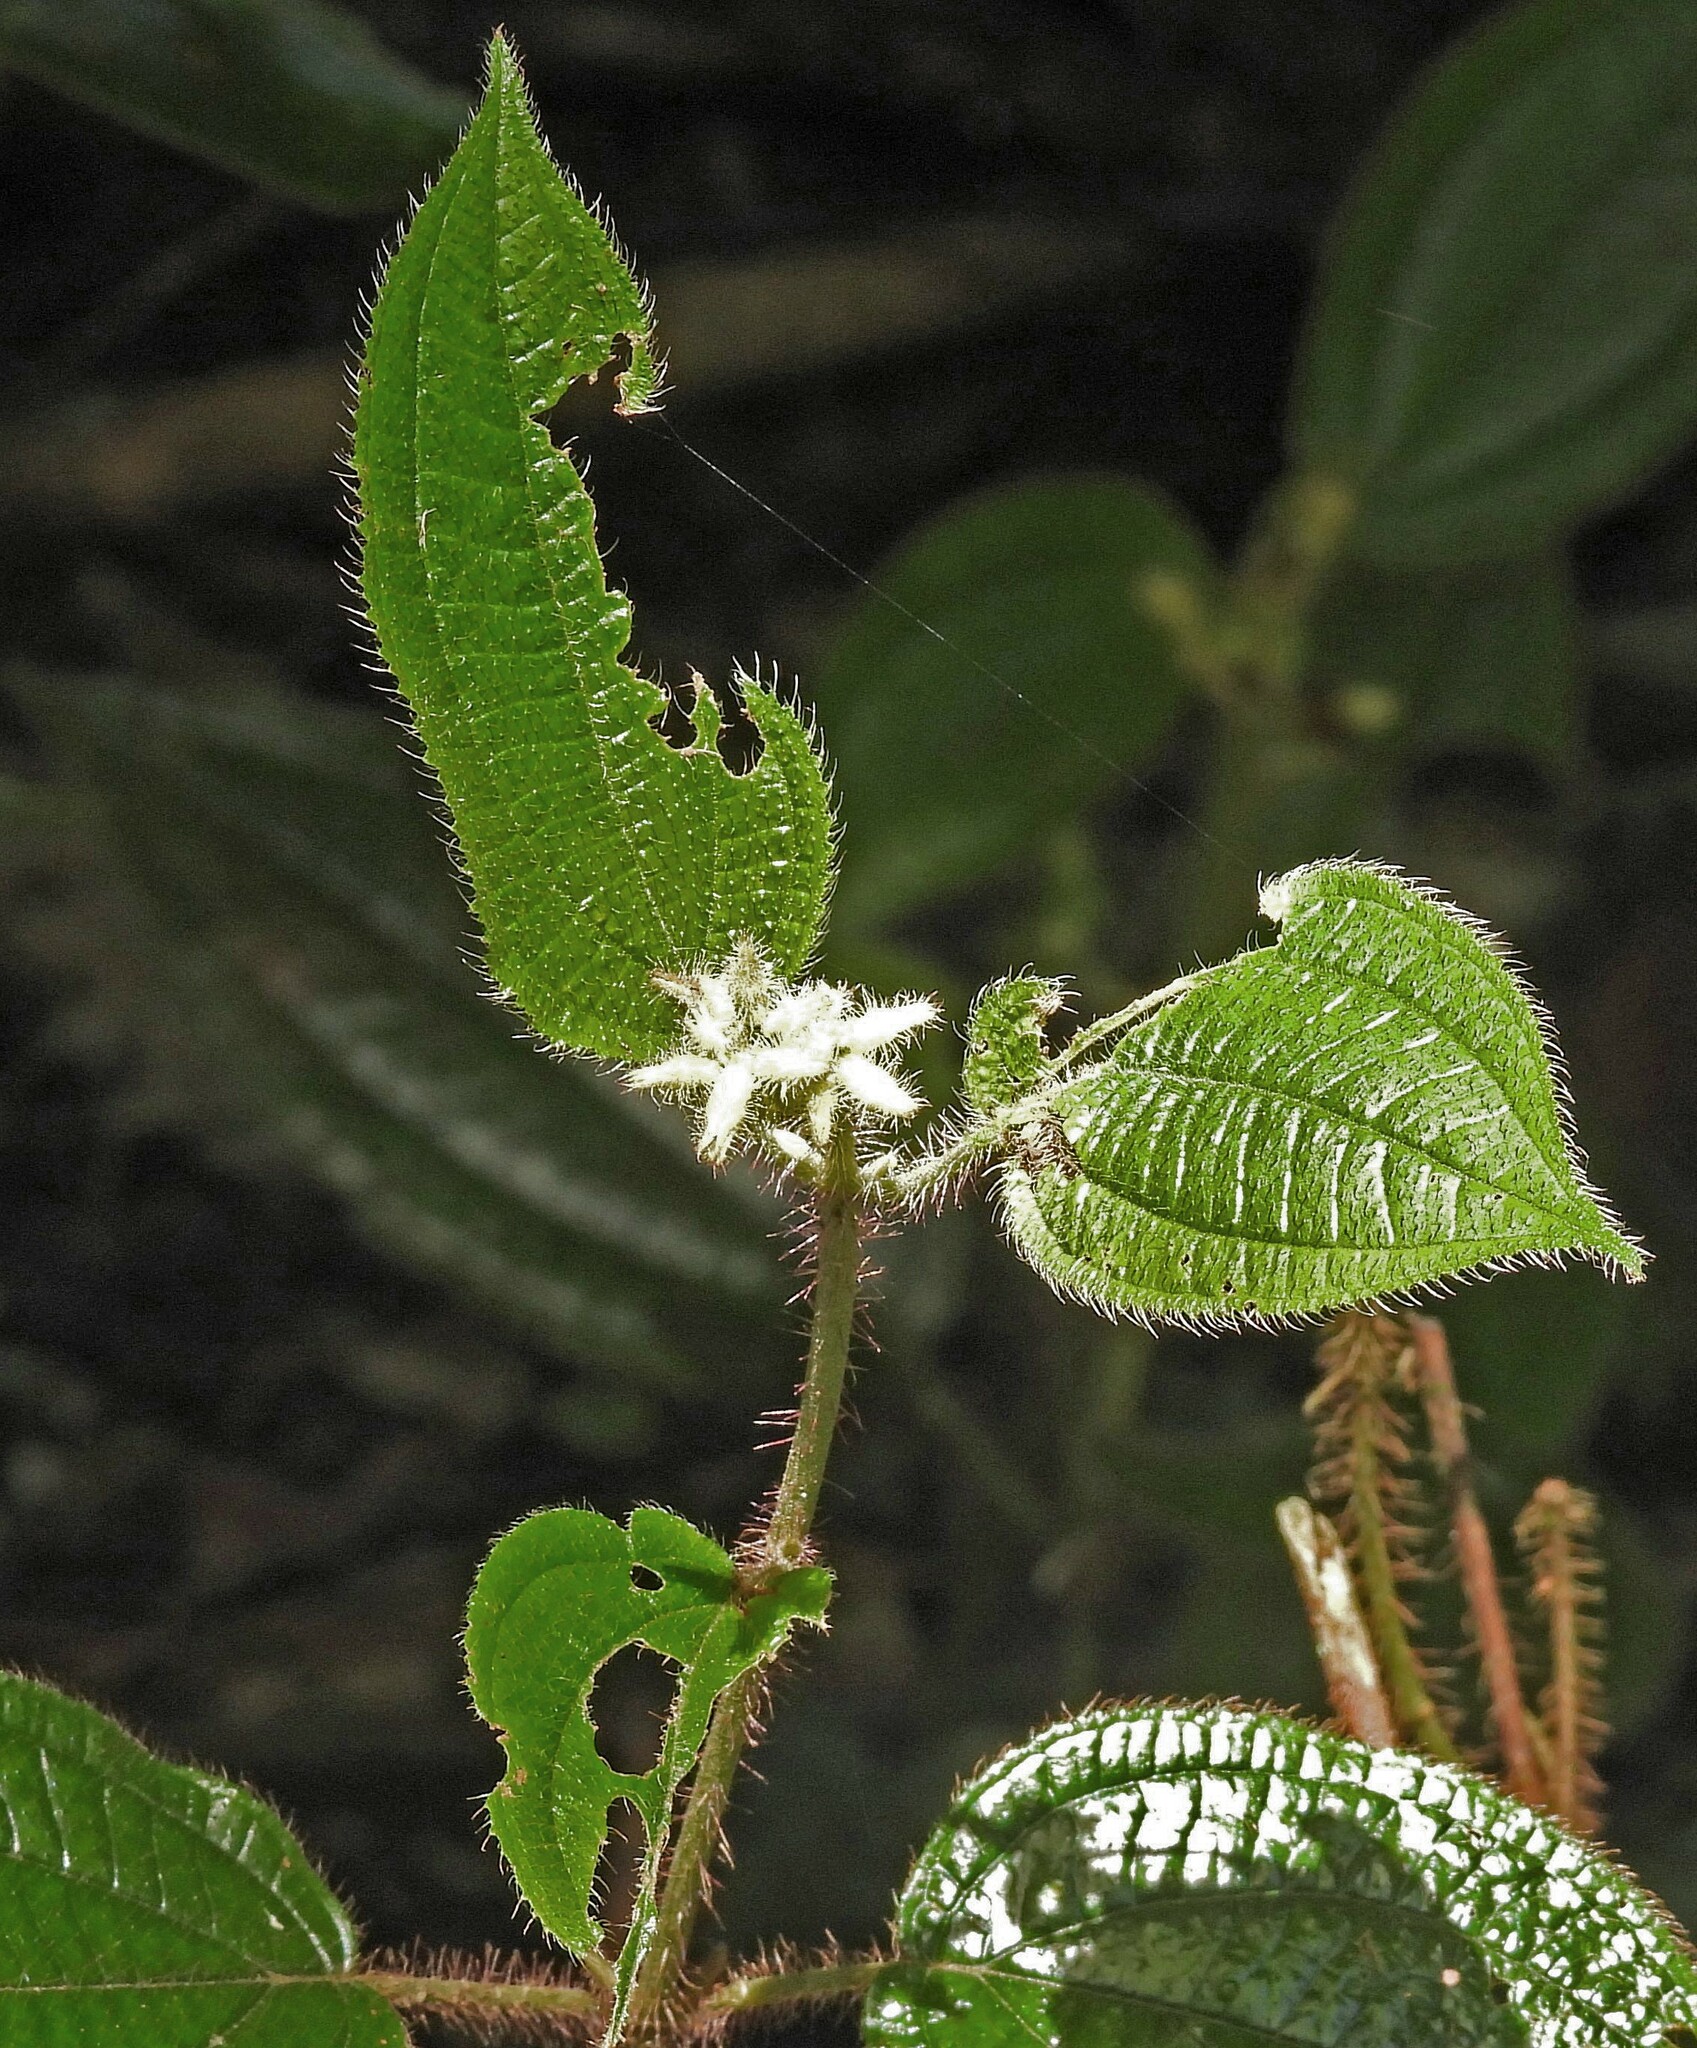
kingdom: Plantae
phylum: Tracheophyta
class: Magnoliopsida
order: Myrtales
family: Melastomataceae
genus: Miconia
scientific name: Miconia australis
